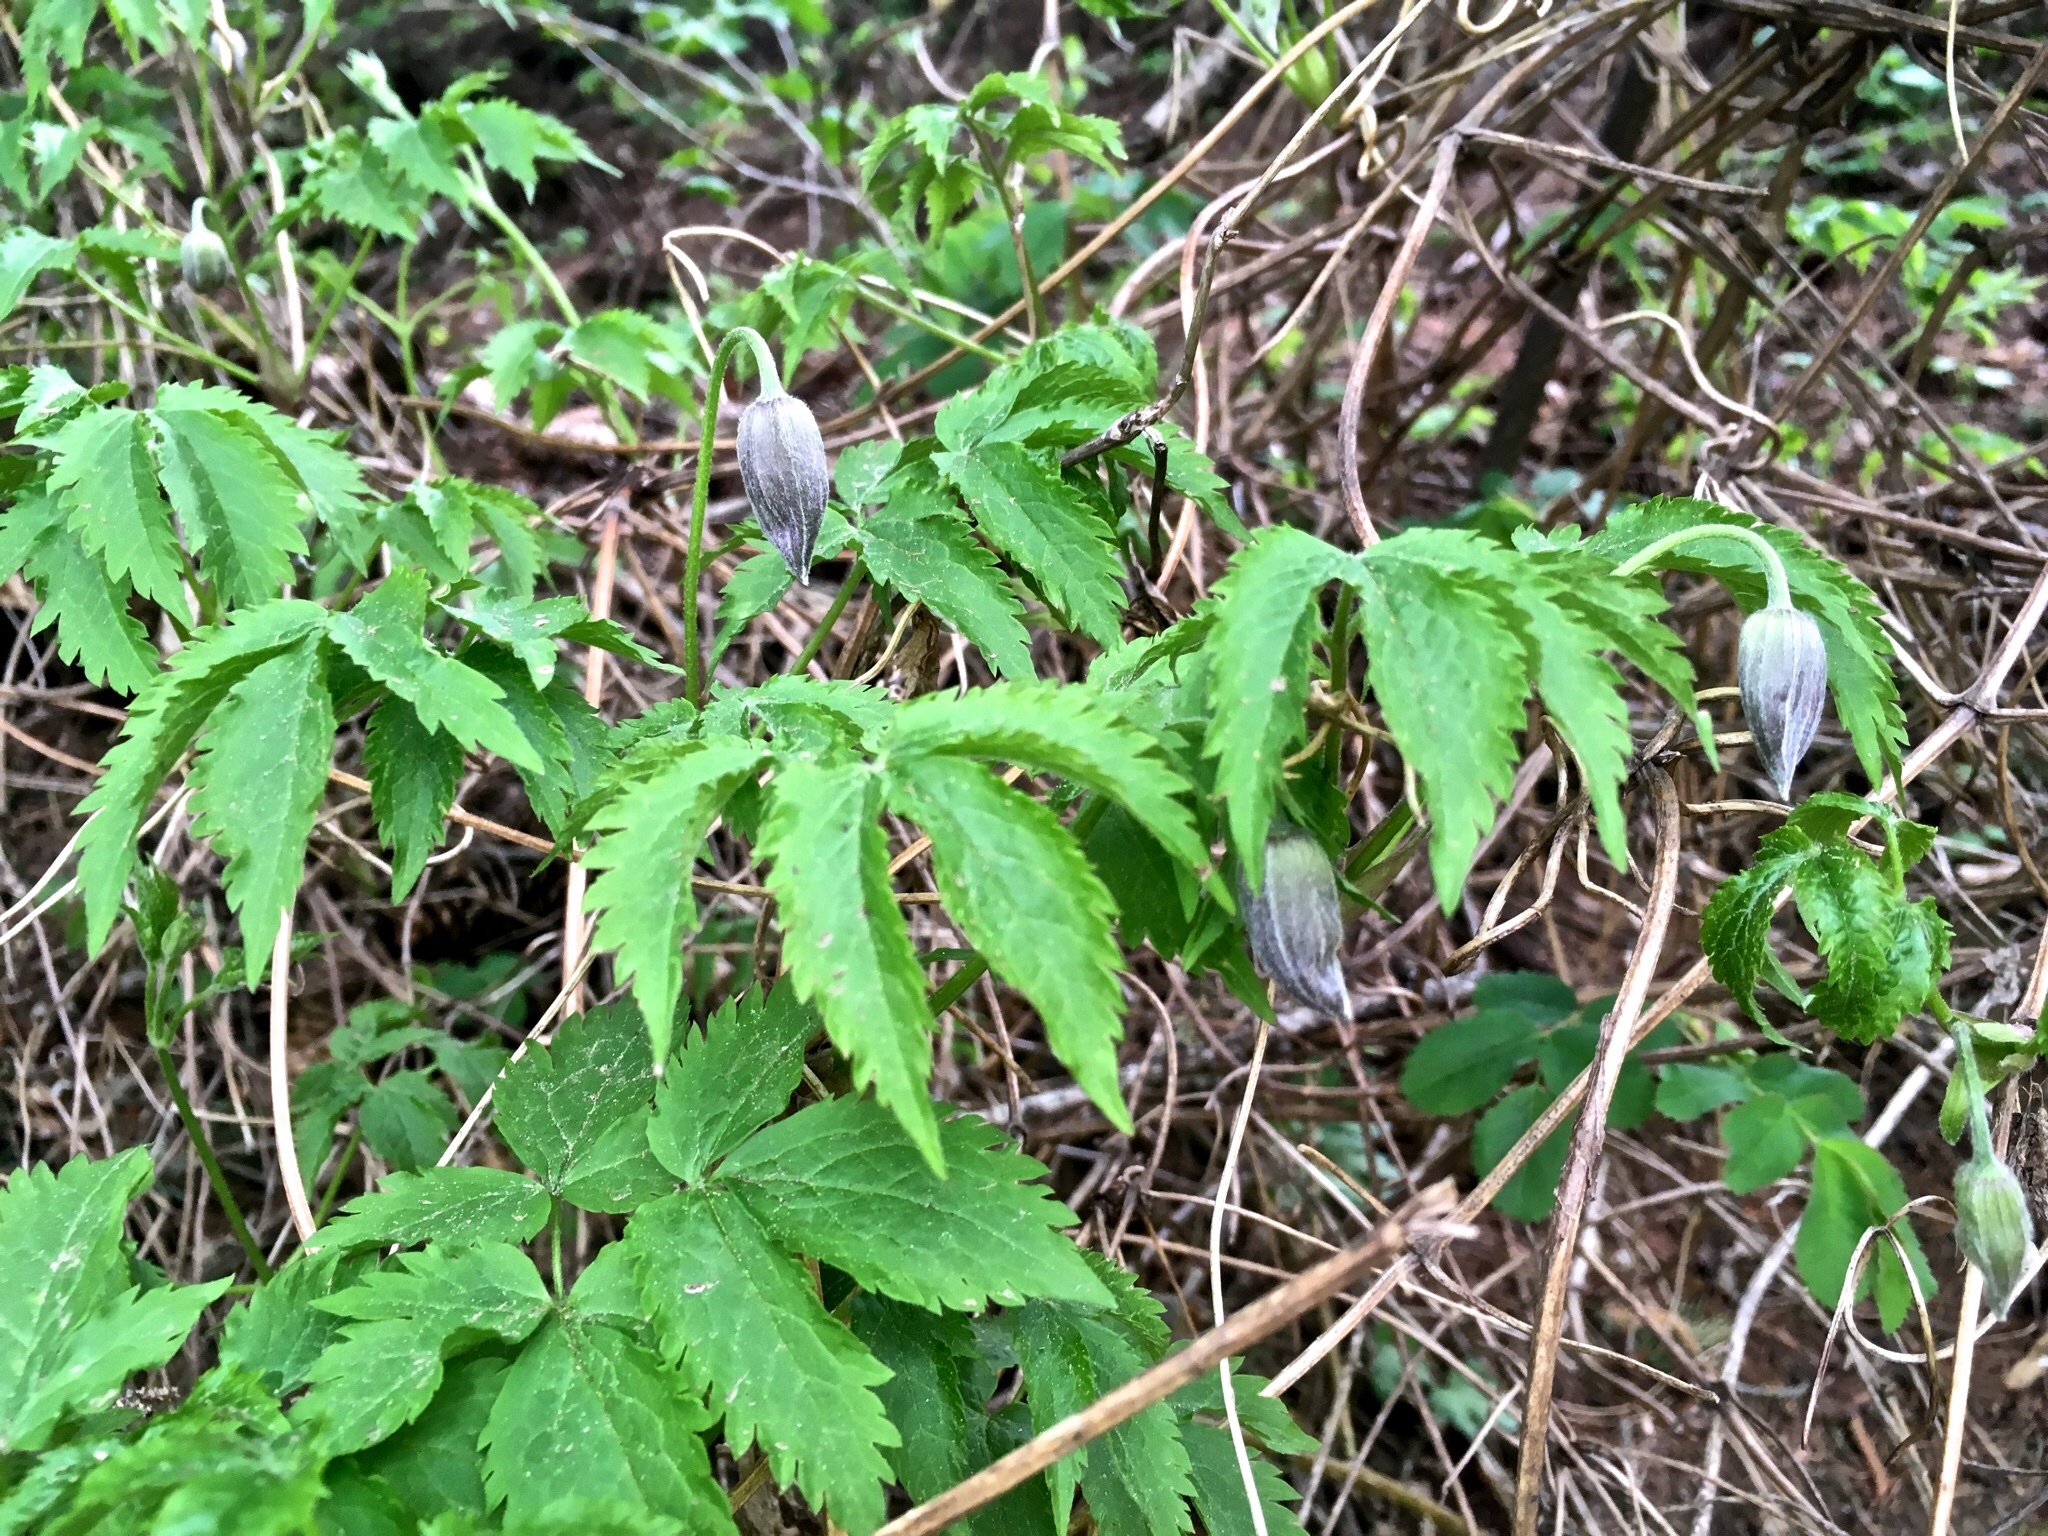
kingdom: Plantae
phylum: Tracheophyta
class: Magnoliopsida
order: Ranunculales
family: Ranunculaceae
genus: Clematis
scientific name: Clematis alpina
